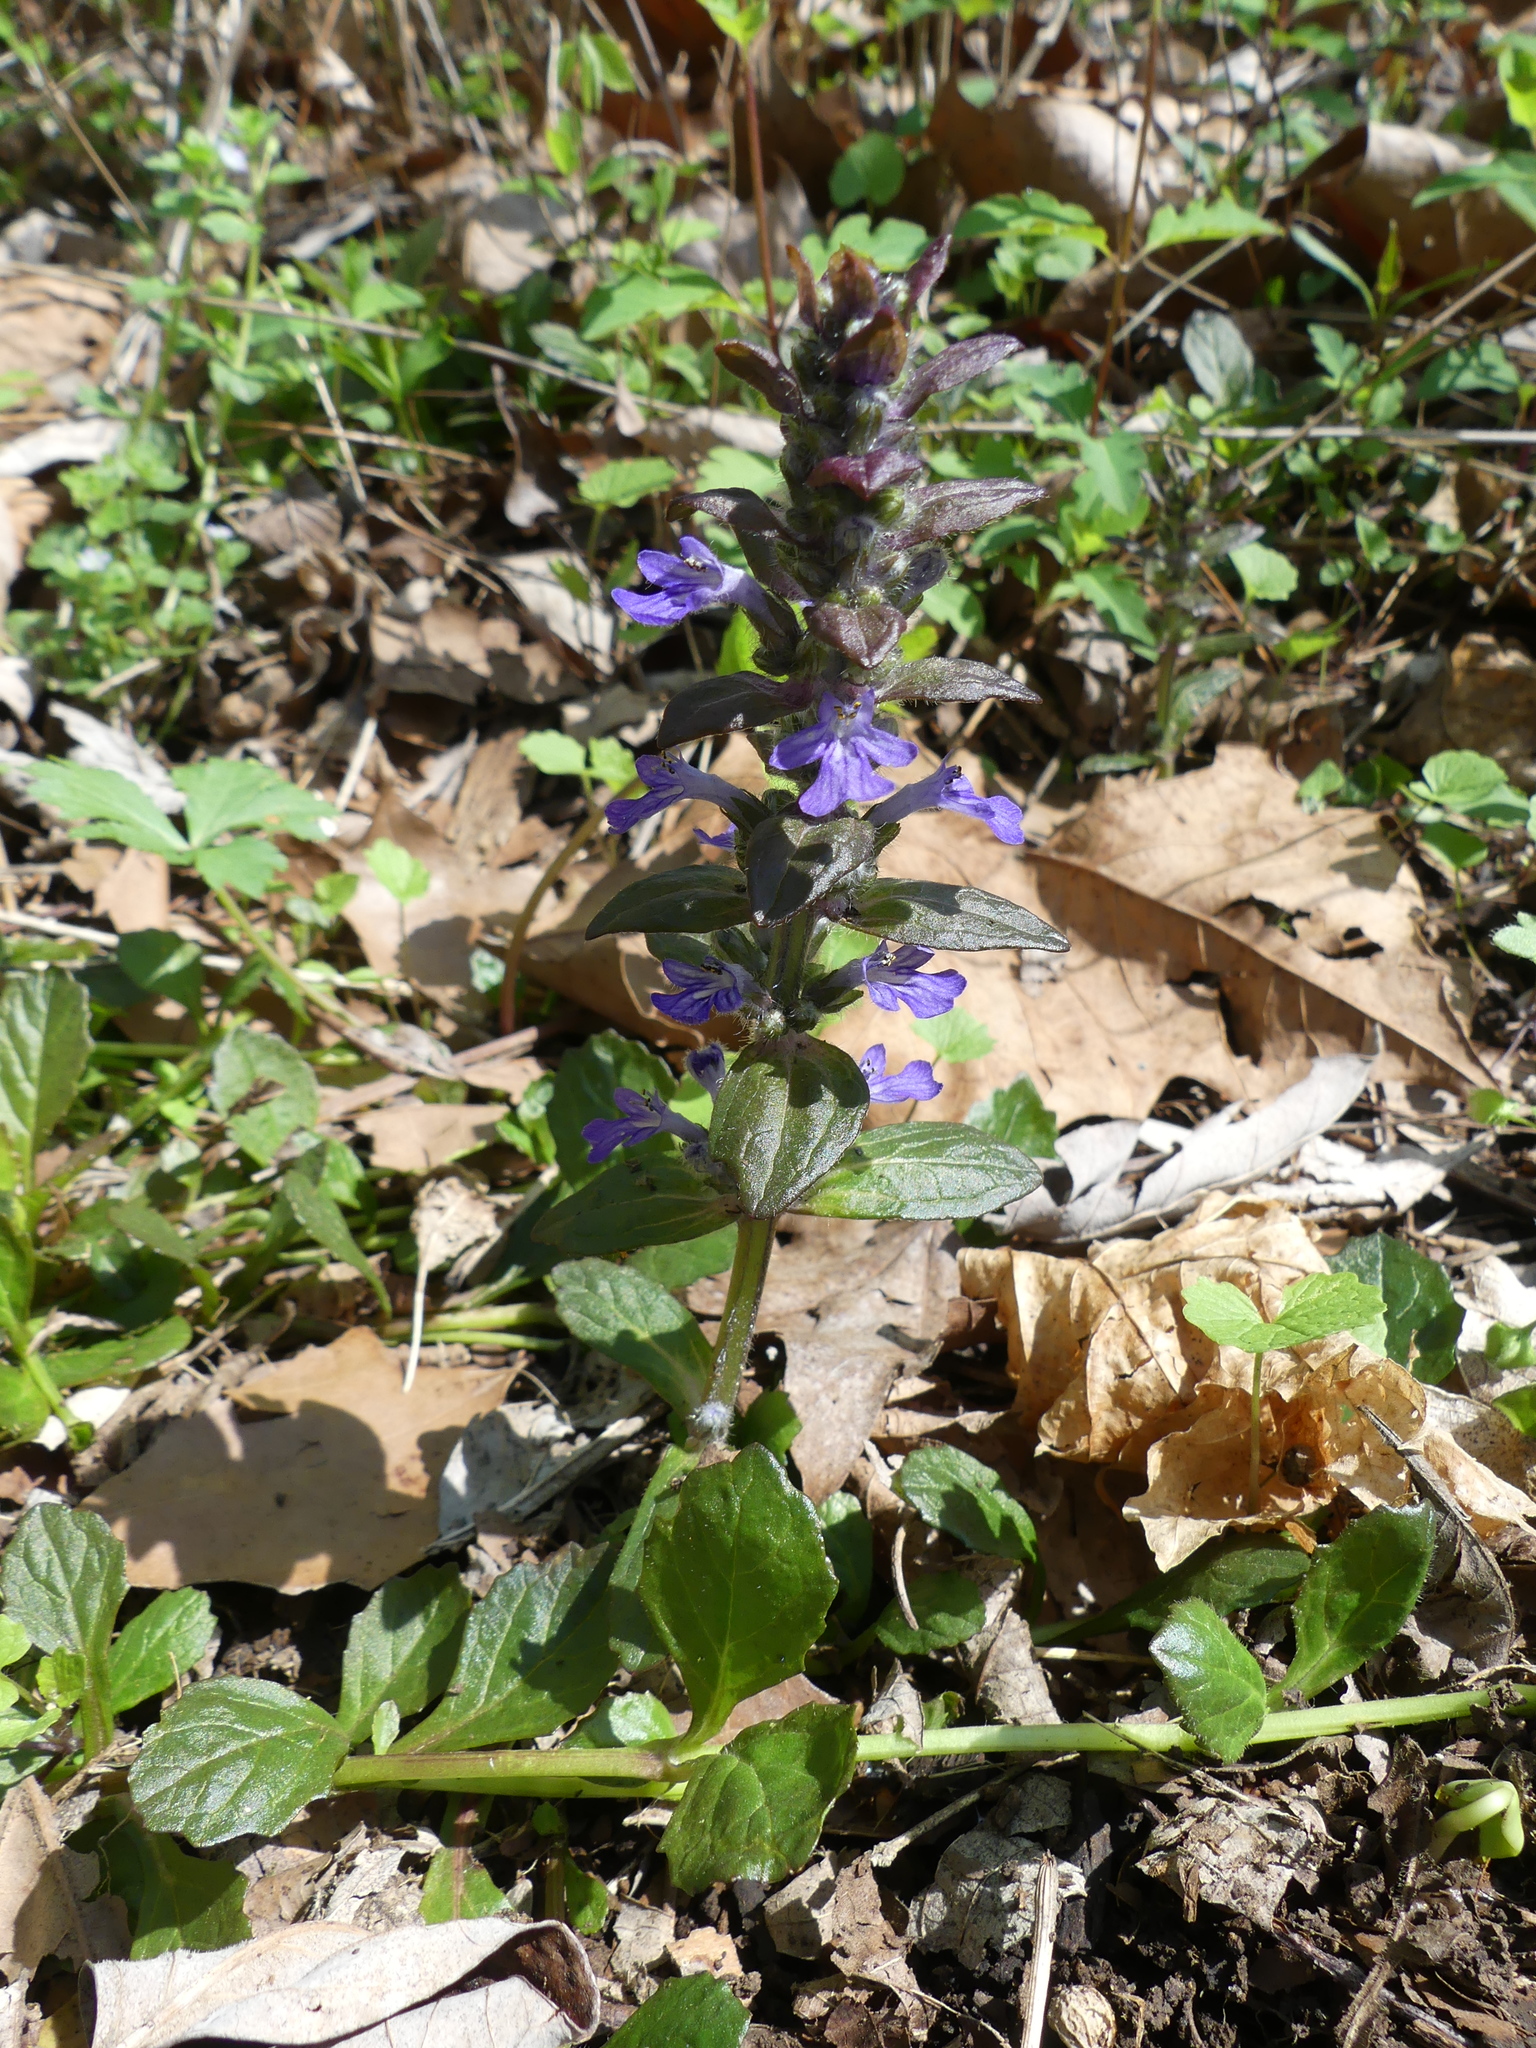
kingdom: Plantae
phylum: Tracheophyta
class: Magnoliopsida
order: Lamiales
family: Lamiaceae
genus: Ajuga
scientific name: Ajuga reptans
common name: Bugle
